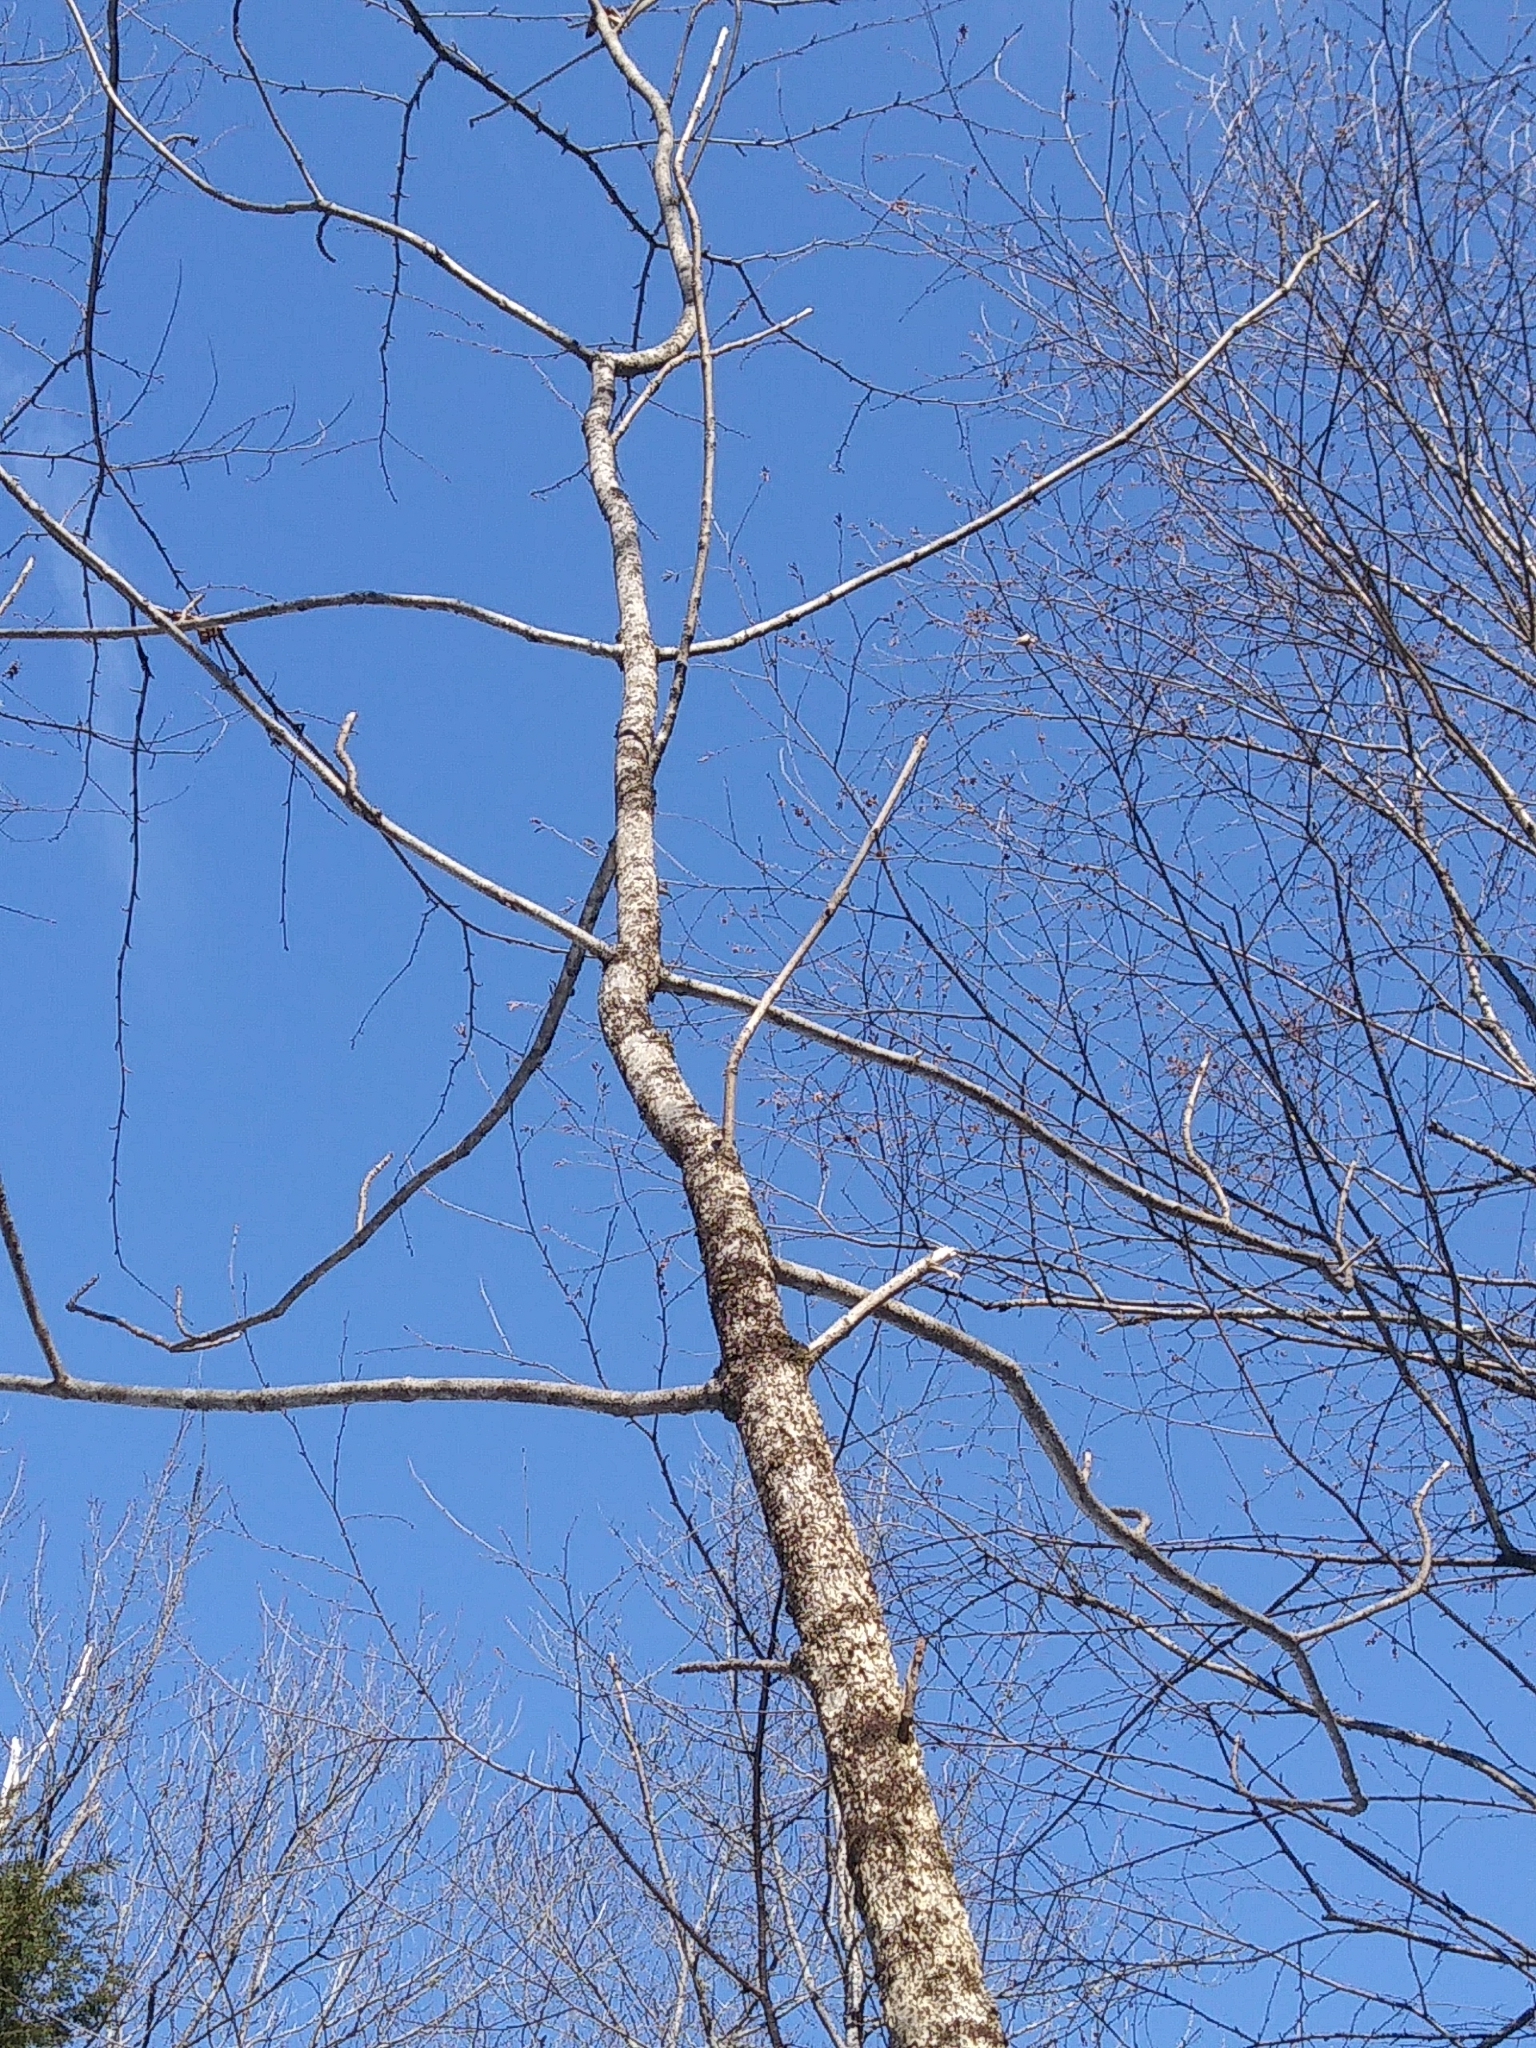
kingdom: Plantae
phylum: Tracheophyta
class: Magnoliopsida
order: Lamiales
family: Oleaceae
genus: Fraxinus
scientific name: Fraxinus nigra
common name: Black ash
